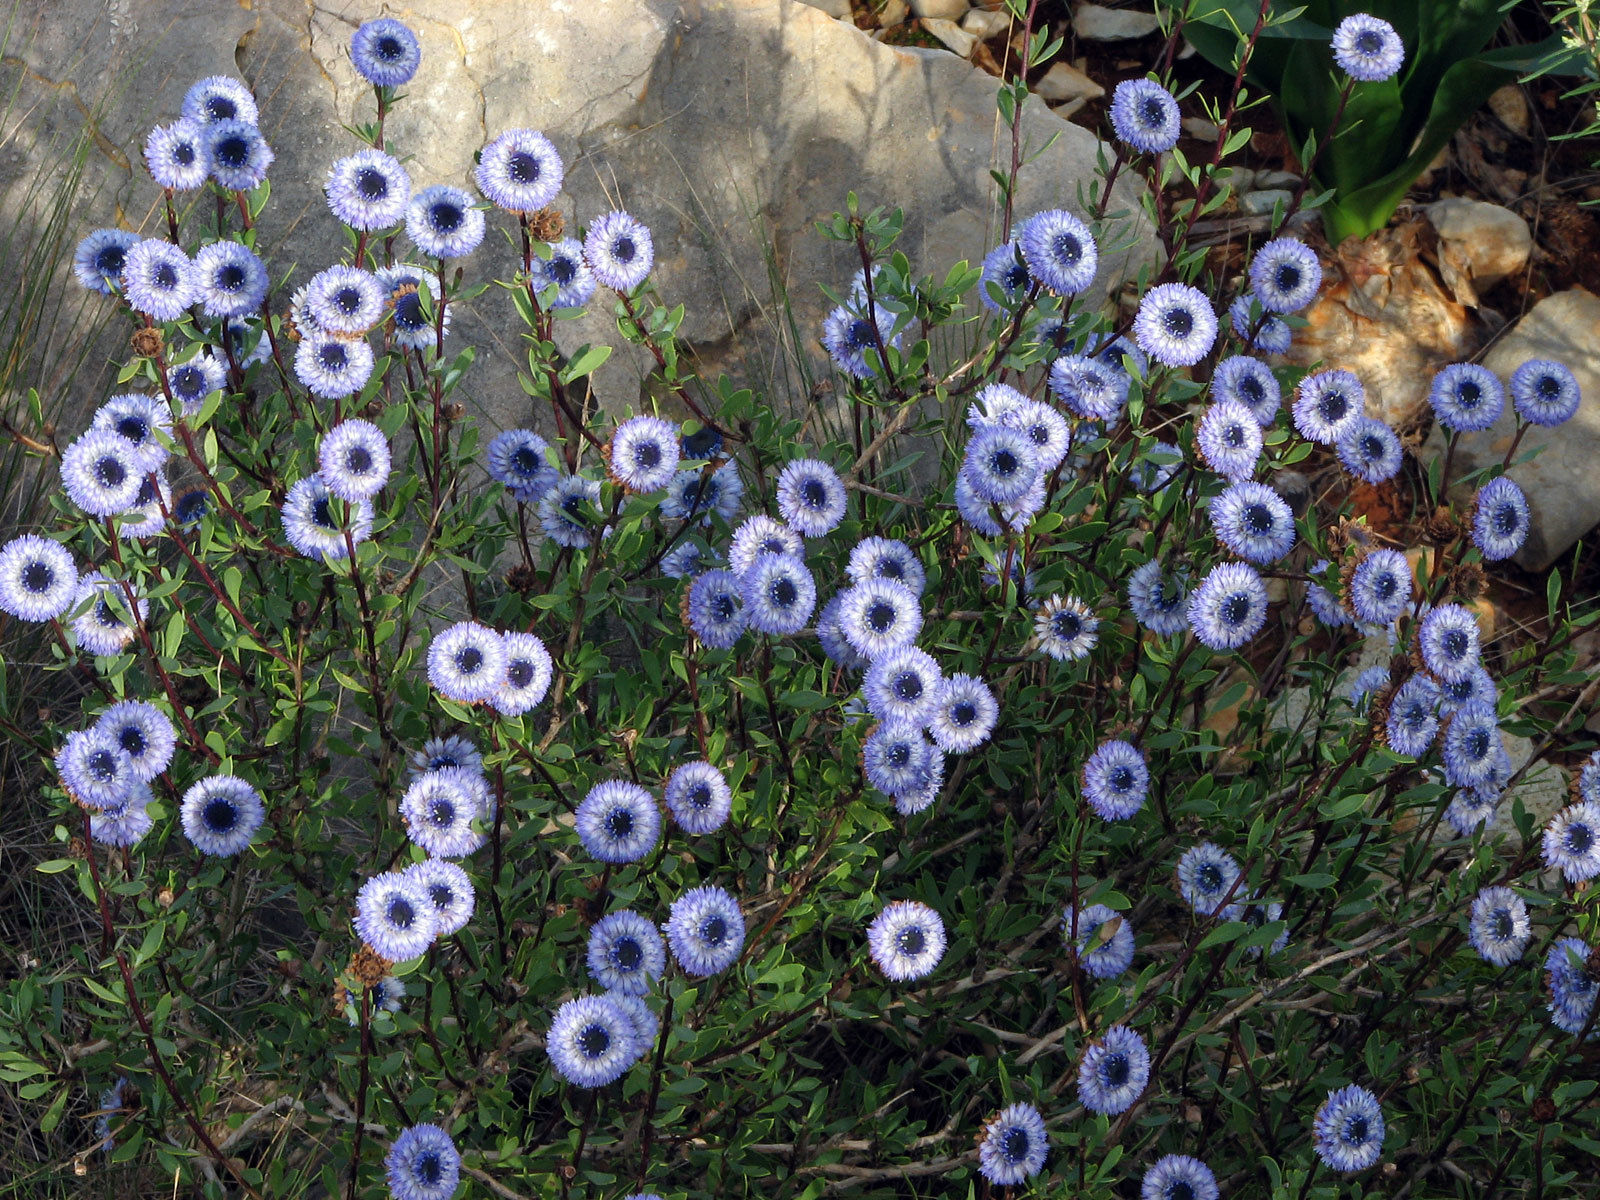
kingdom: Plantae
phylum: Tracheophyta
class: Magnoliopsida
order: Lamiales
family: Plantaginaceae
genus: Globularia
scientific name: Globularia alypum
